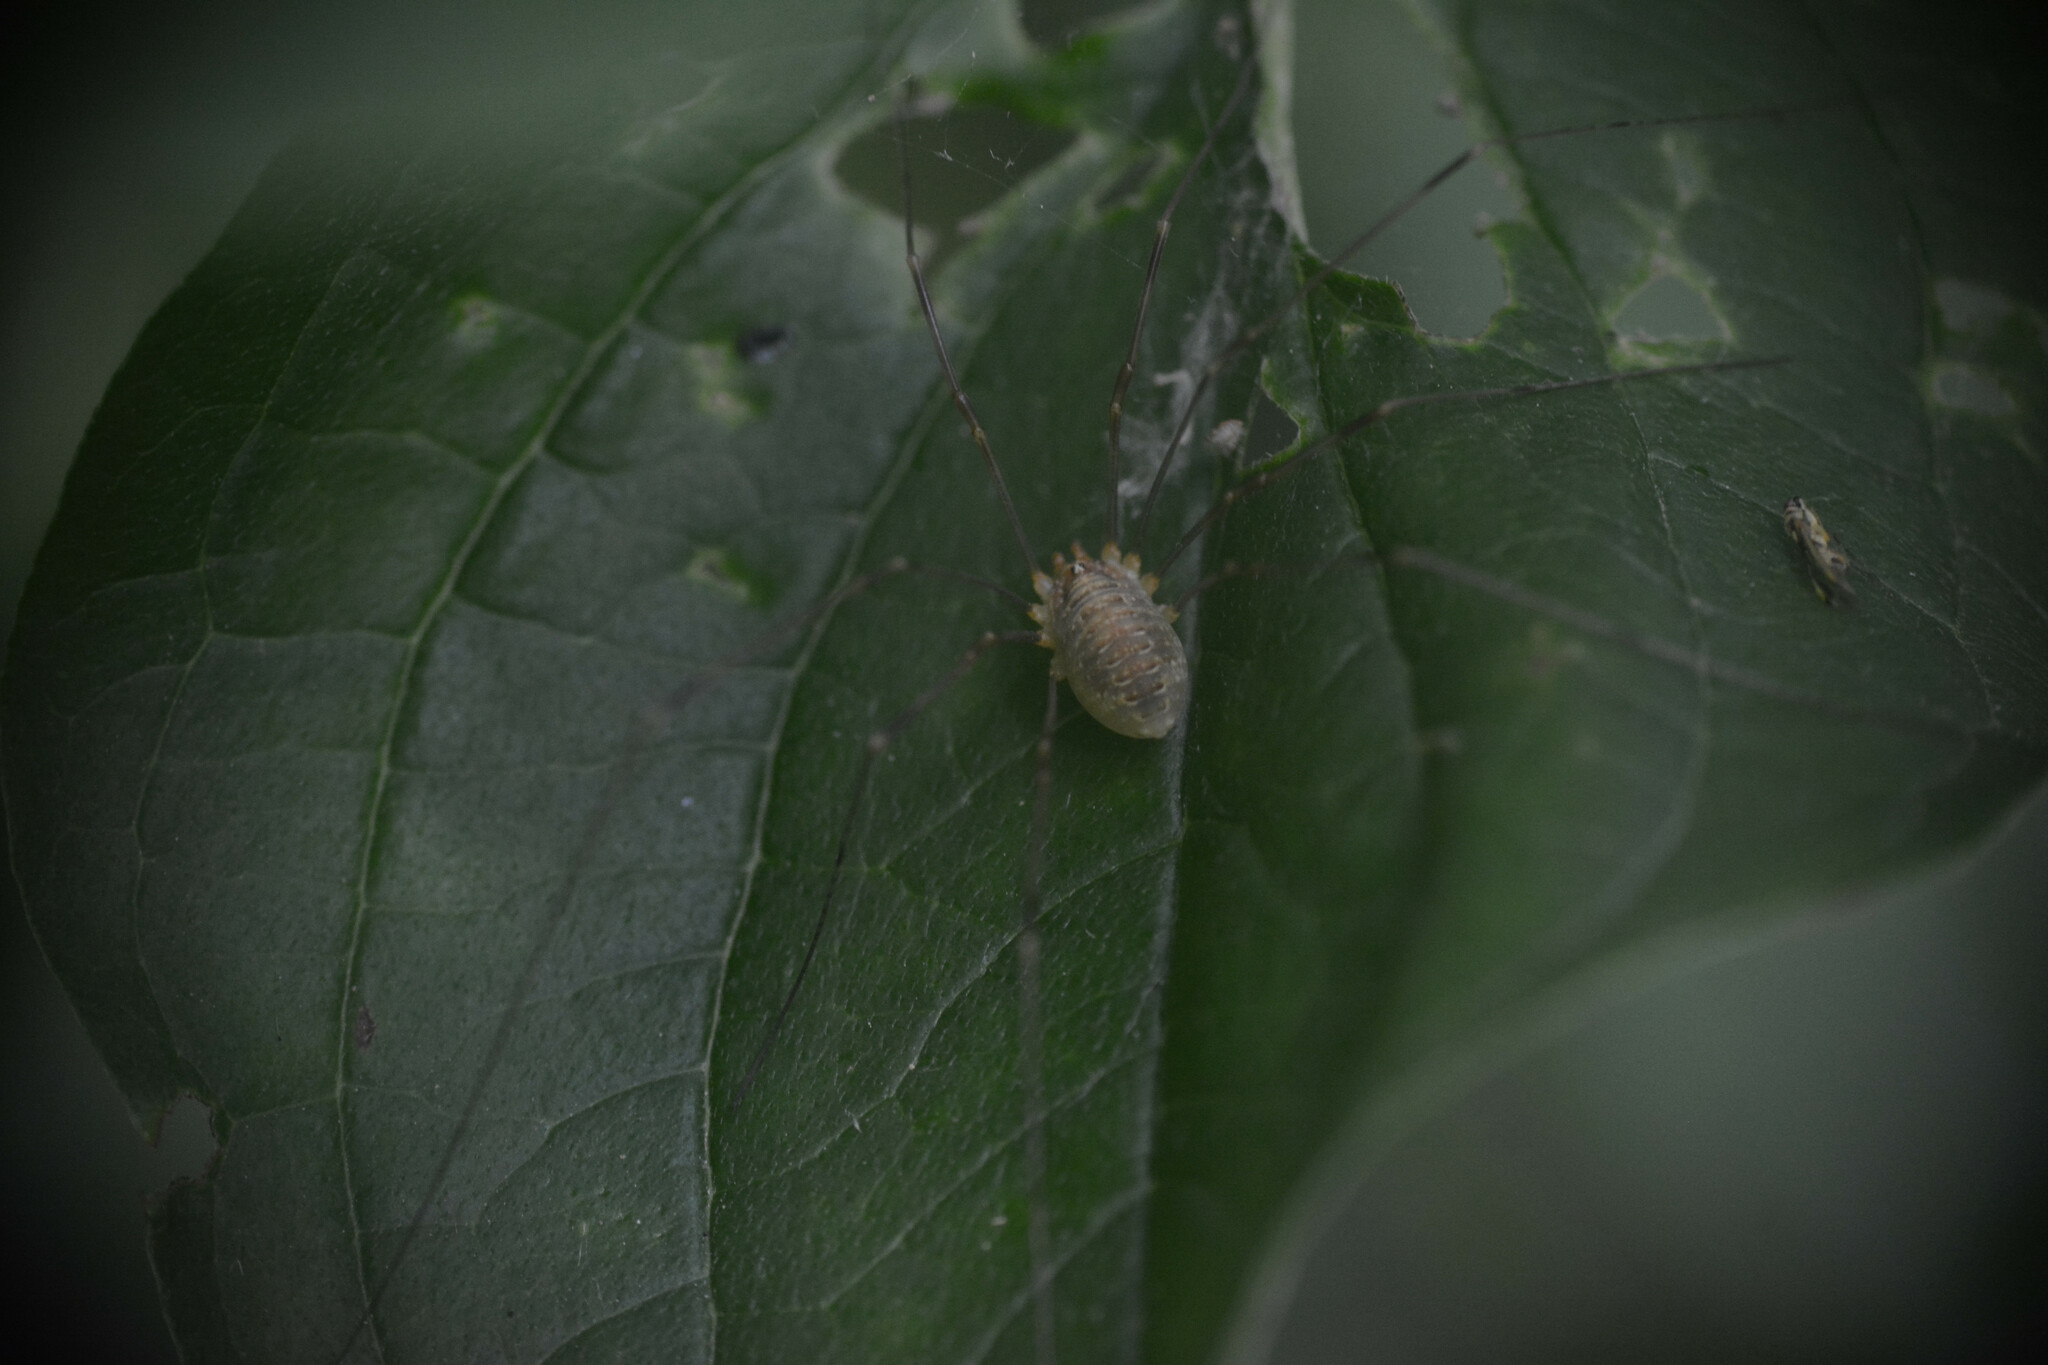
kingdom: Animalia
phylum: Arthropoda
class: Arachnida
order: Opiliones
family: Phalangiidae
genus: Opilio
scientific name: Opilio canestrinii
